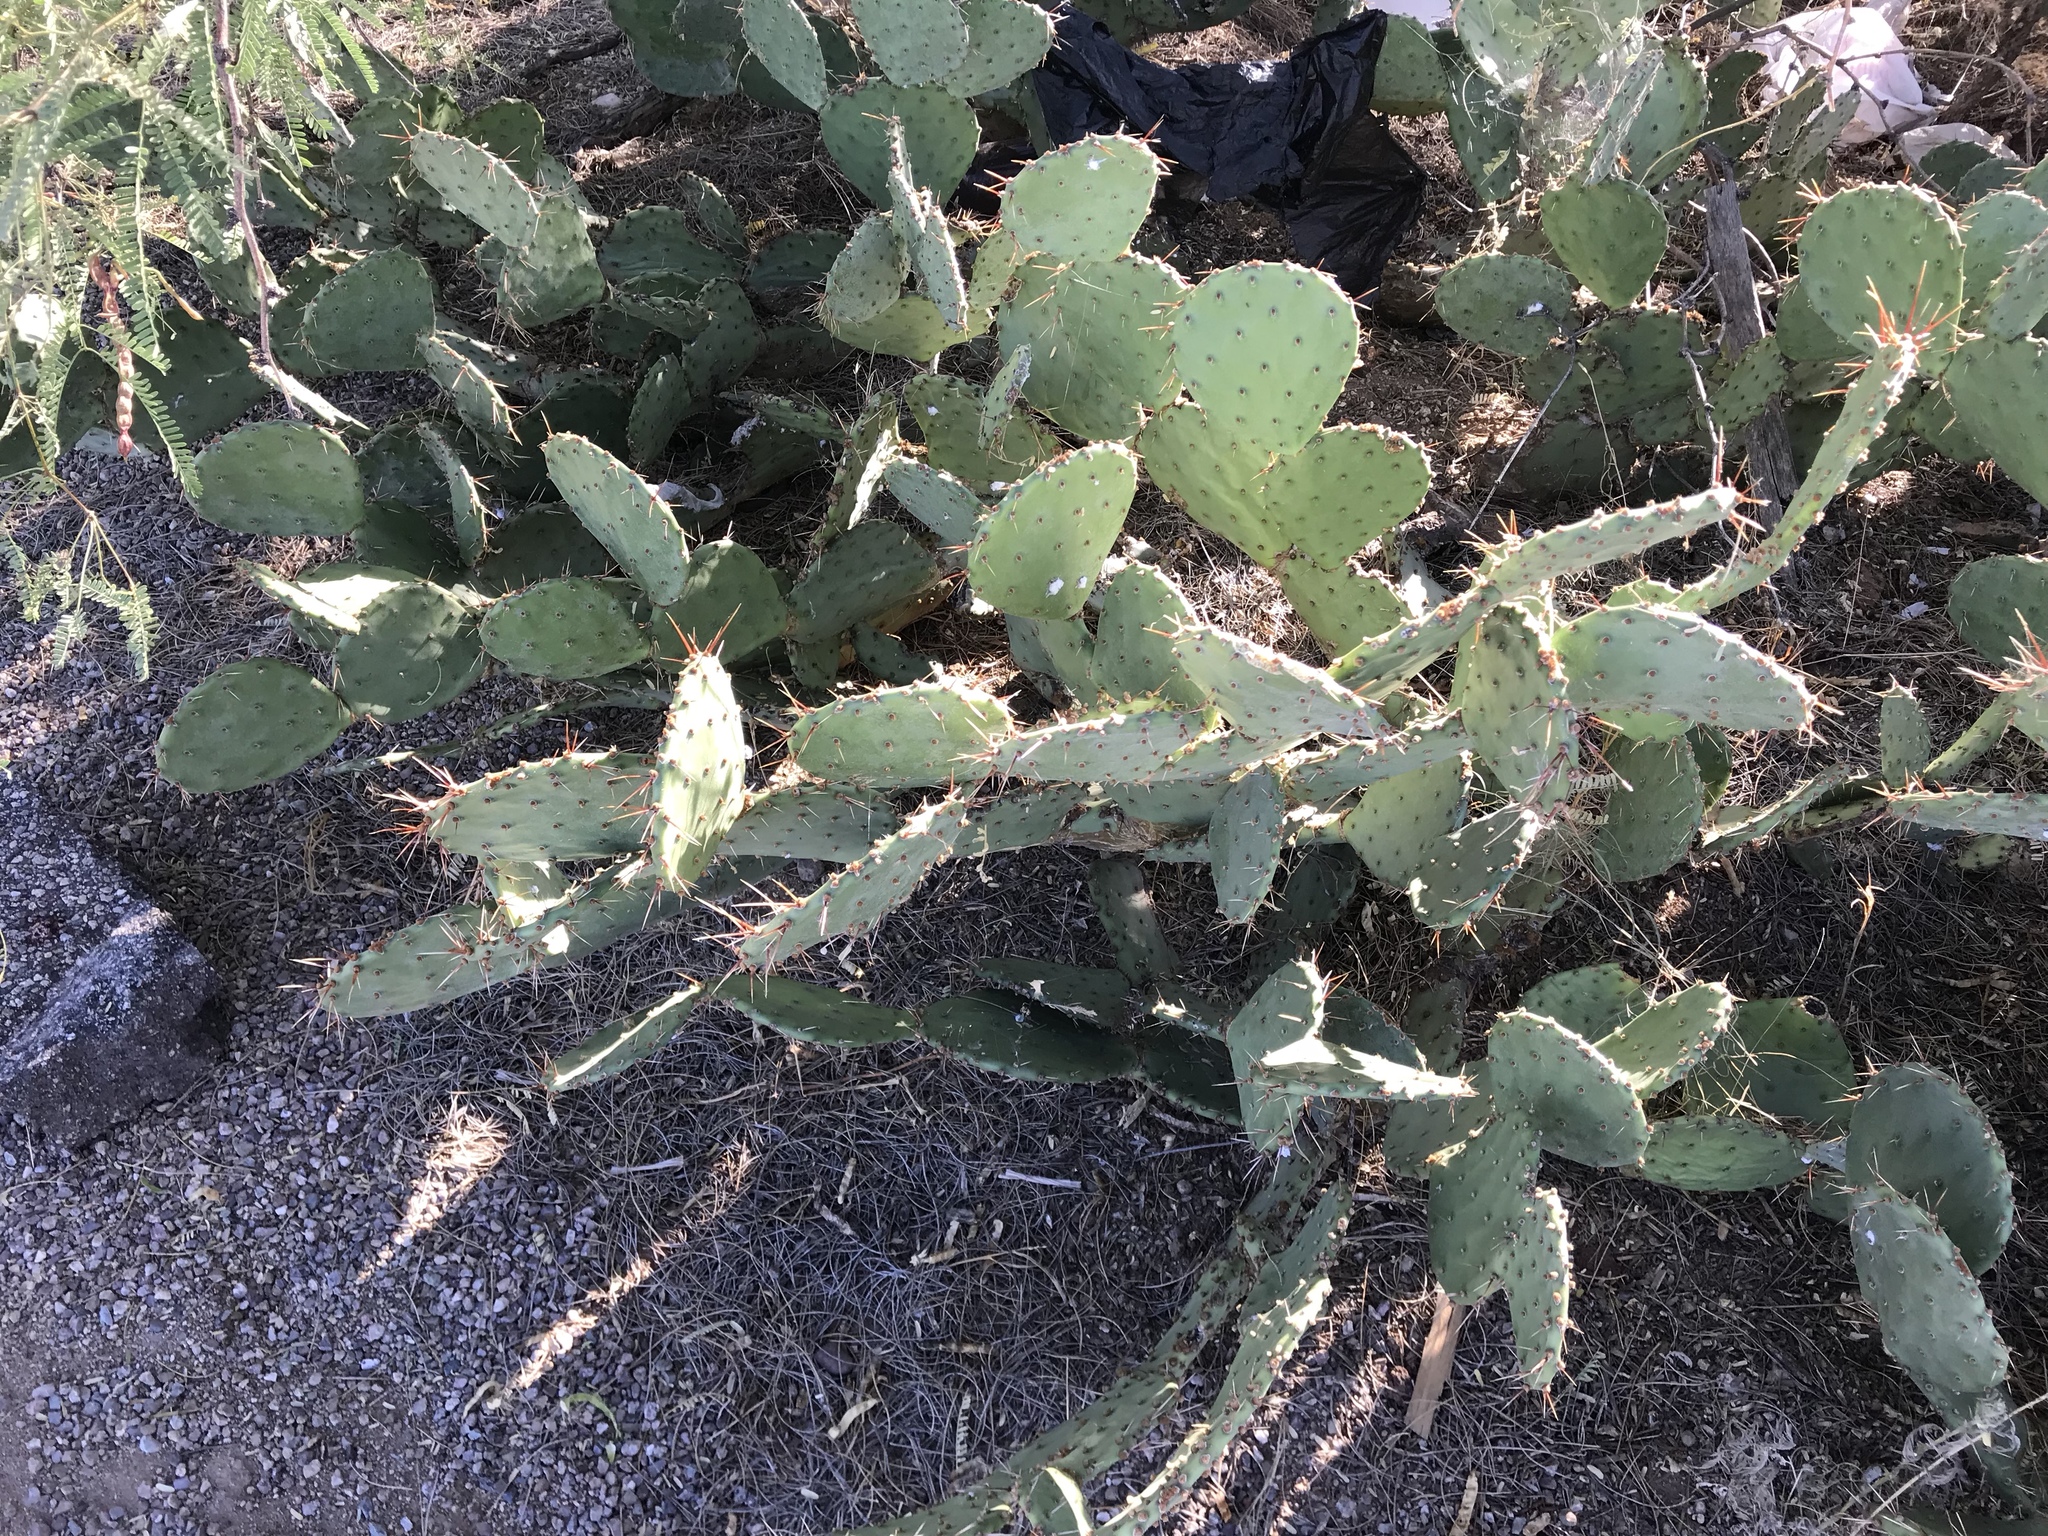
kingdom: Plantae
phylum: Tracheophyta
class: Magnoliopsida
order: Caryophyllales
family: Cactaceae
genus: Opuntia
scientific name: Opuntia phaeacantha
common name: New mexico prickly-pear
